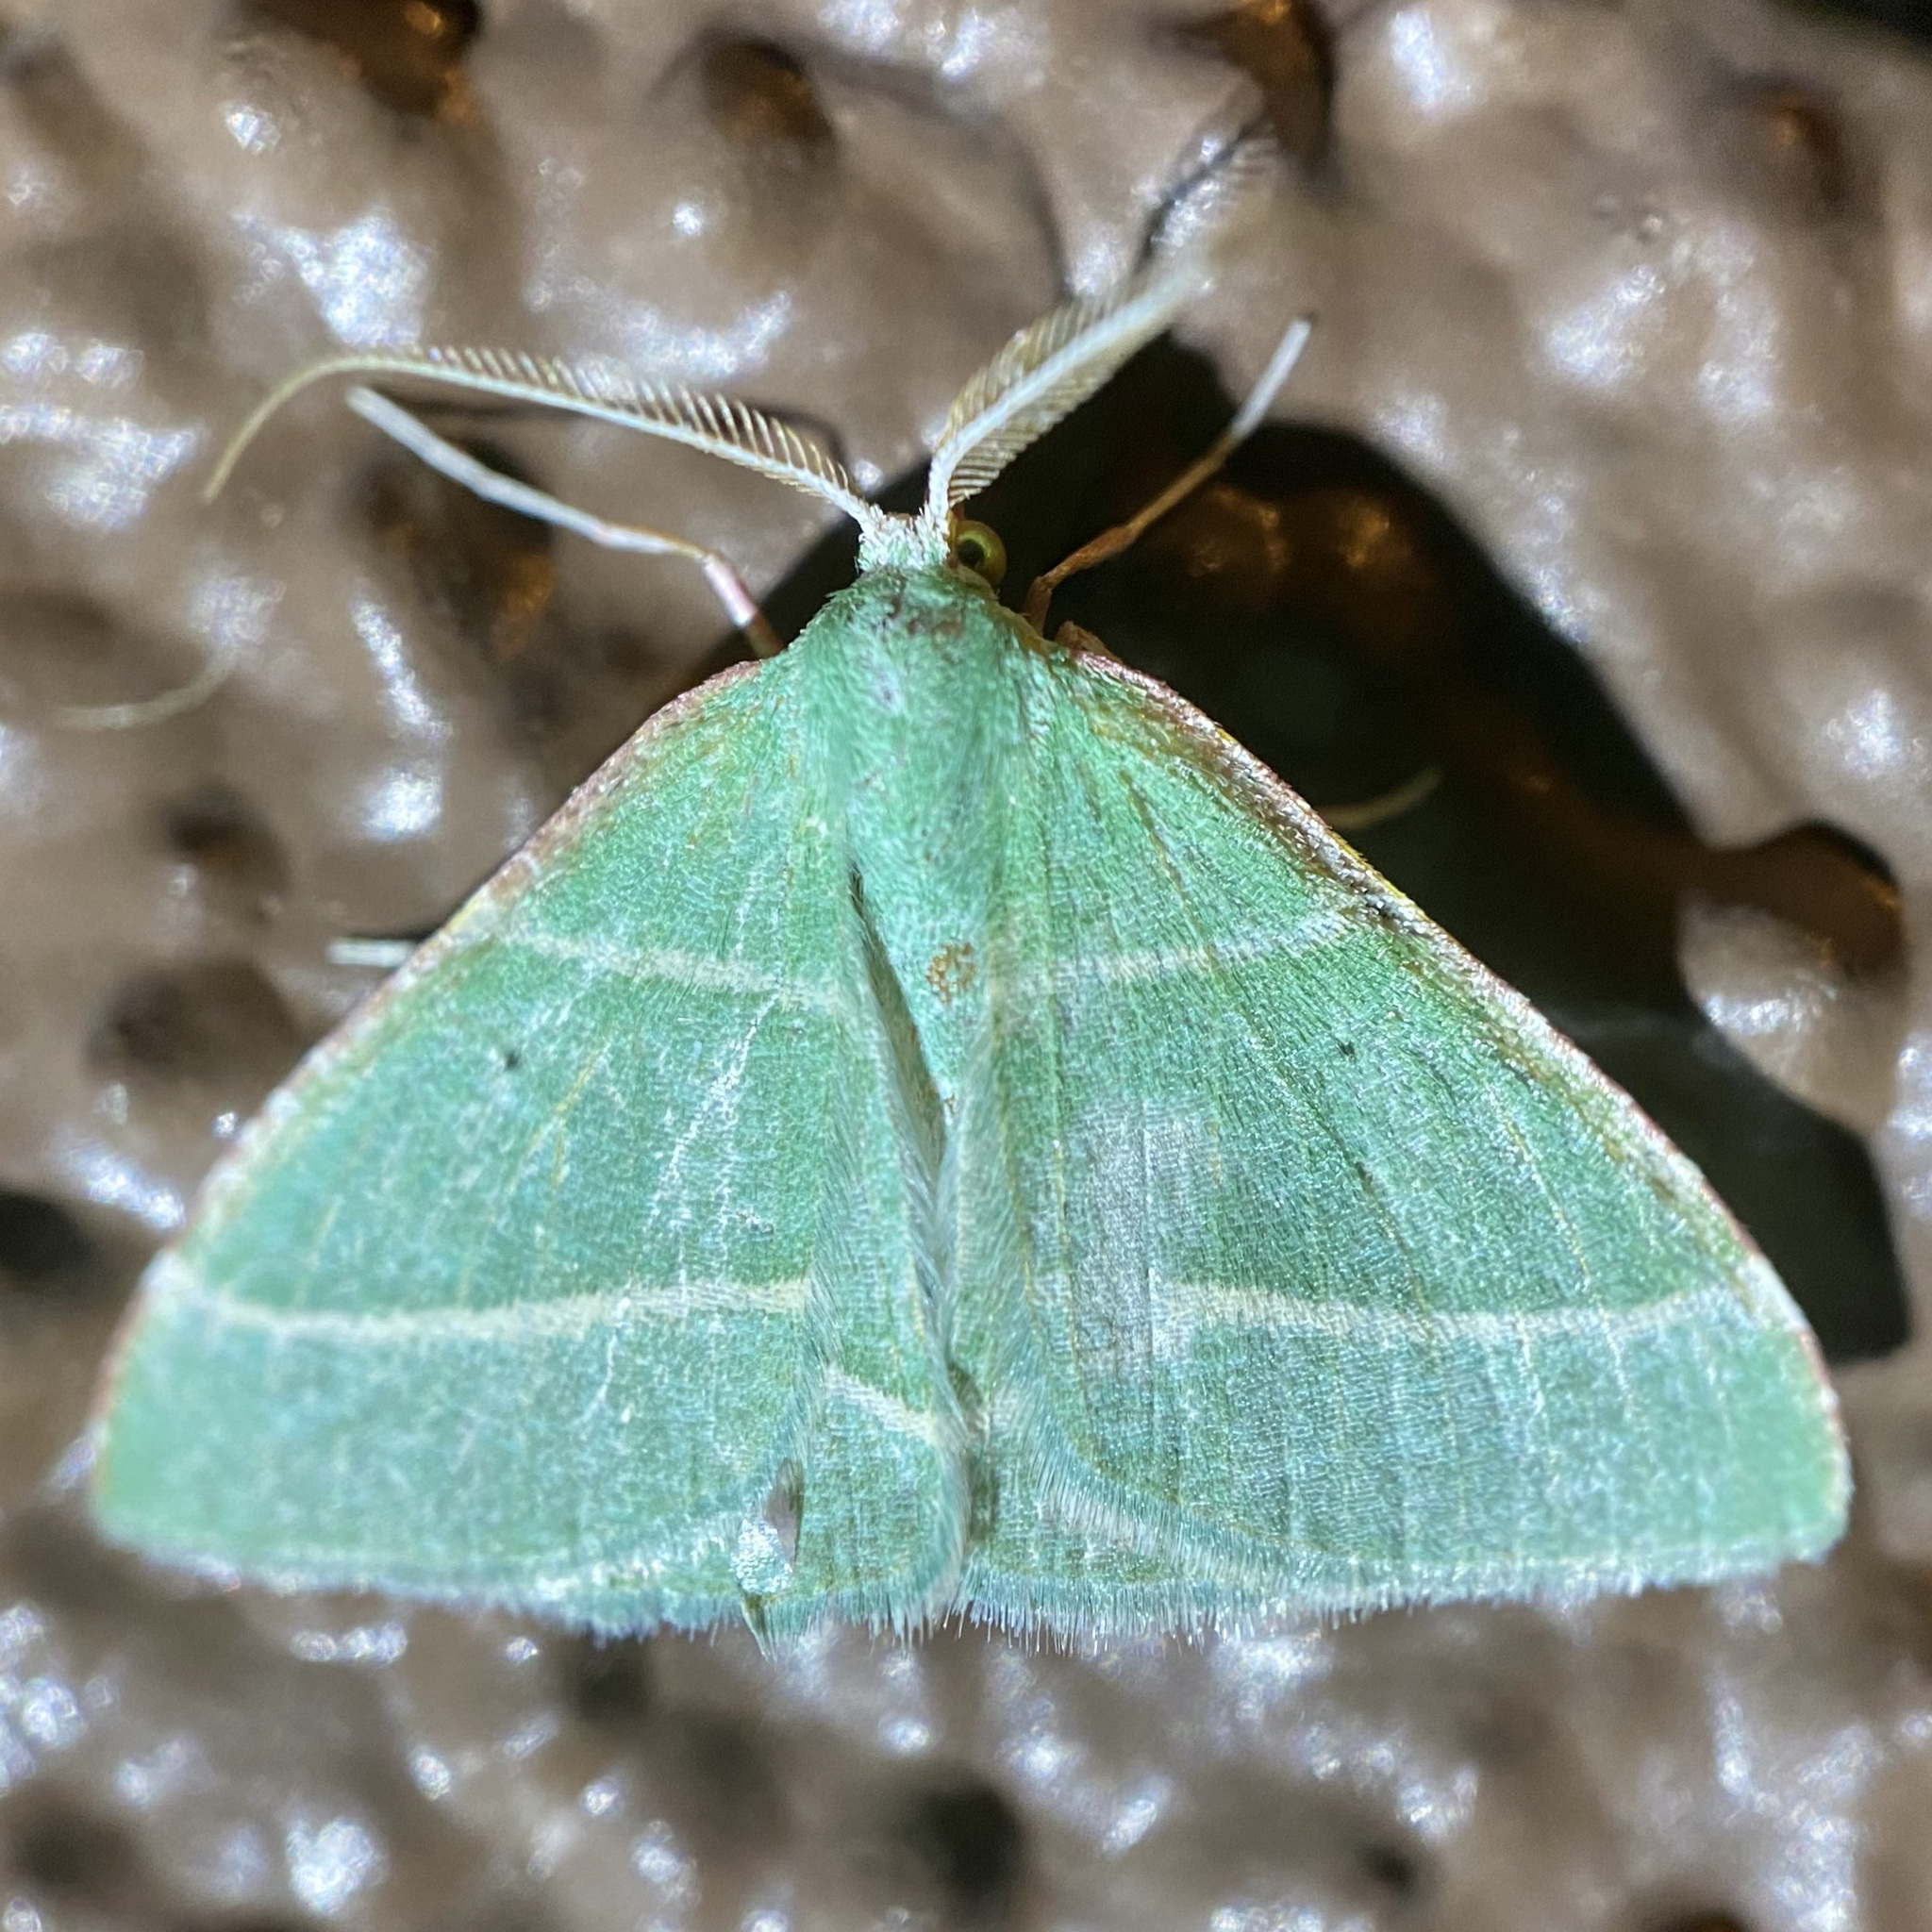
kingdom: Animalia
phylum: Arthropoda
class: Insecta
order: Lepidoptera
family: Geometridae
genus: Dichordophora
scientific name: Dichordophora phoenix
